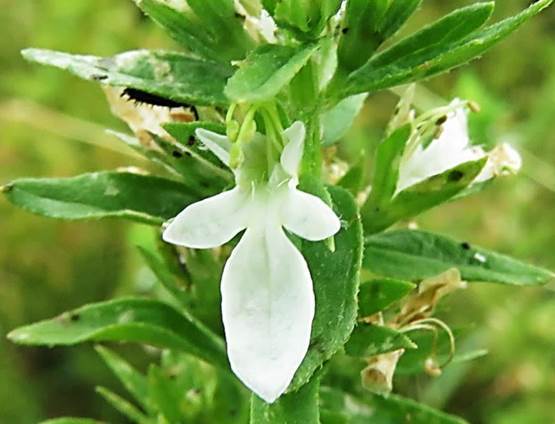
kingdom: Plantae
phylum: Tracheophyta
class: Magnoliopsida
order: Lamiales
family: Lamiaceae
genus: Teucrium
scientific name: Teucrium cubense
